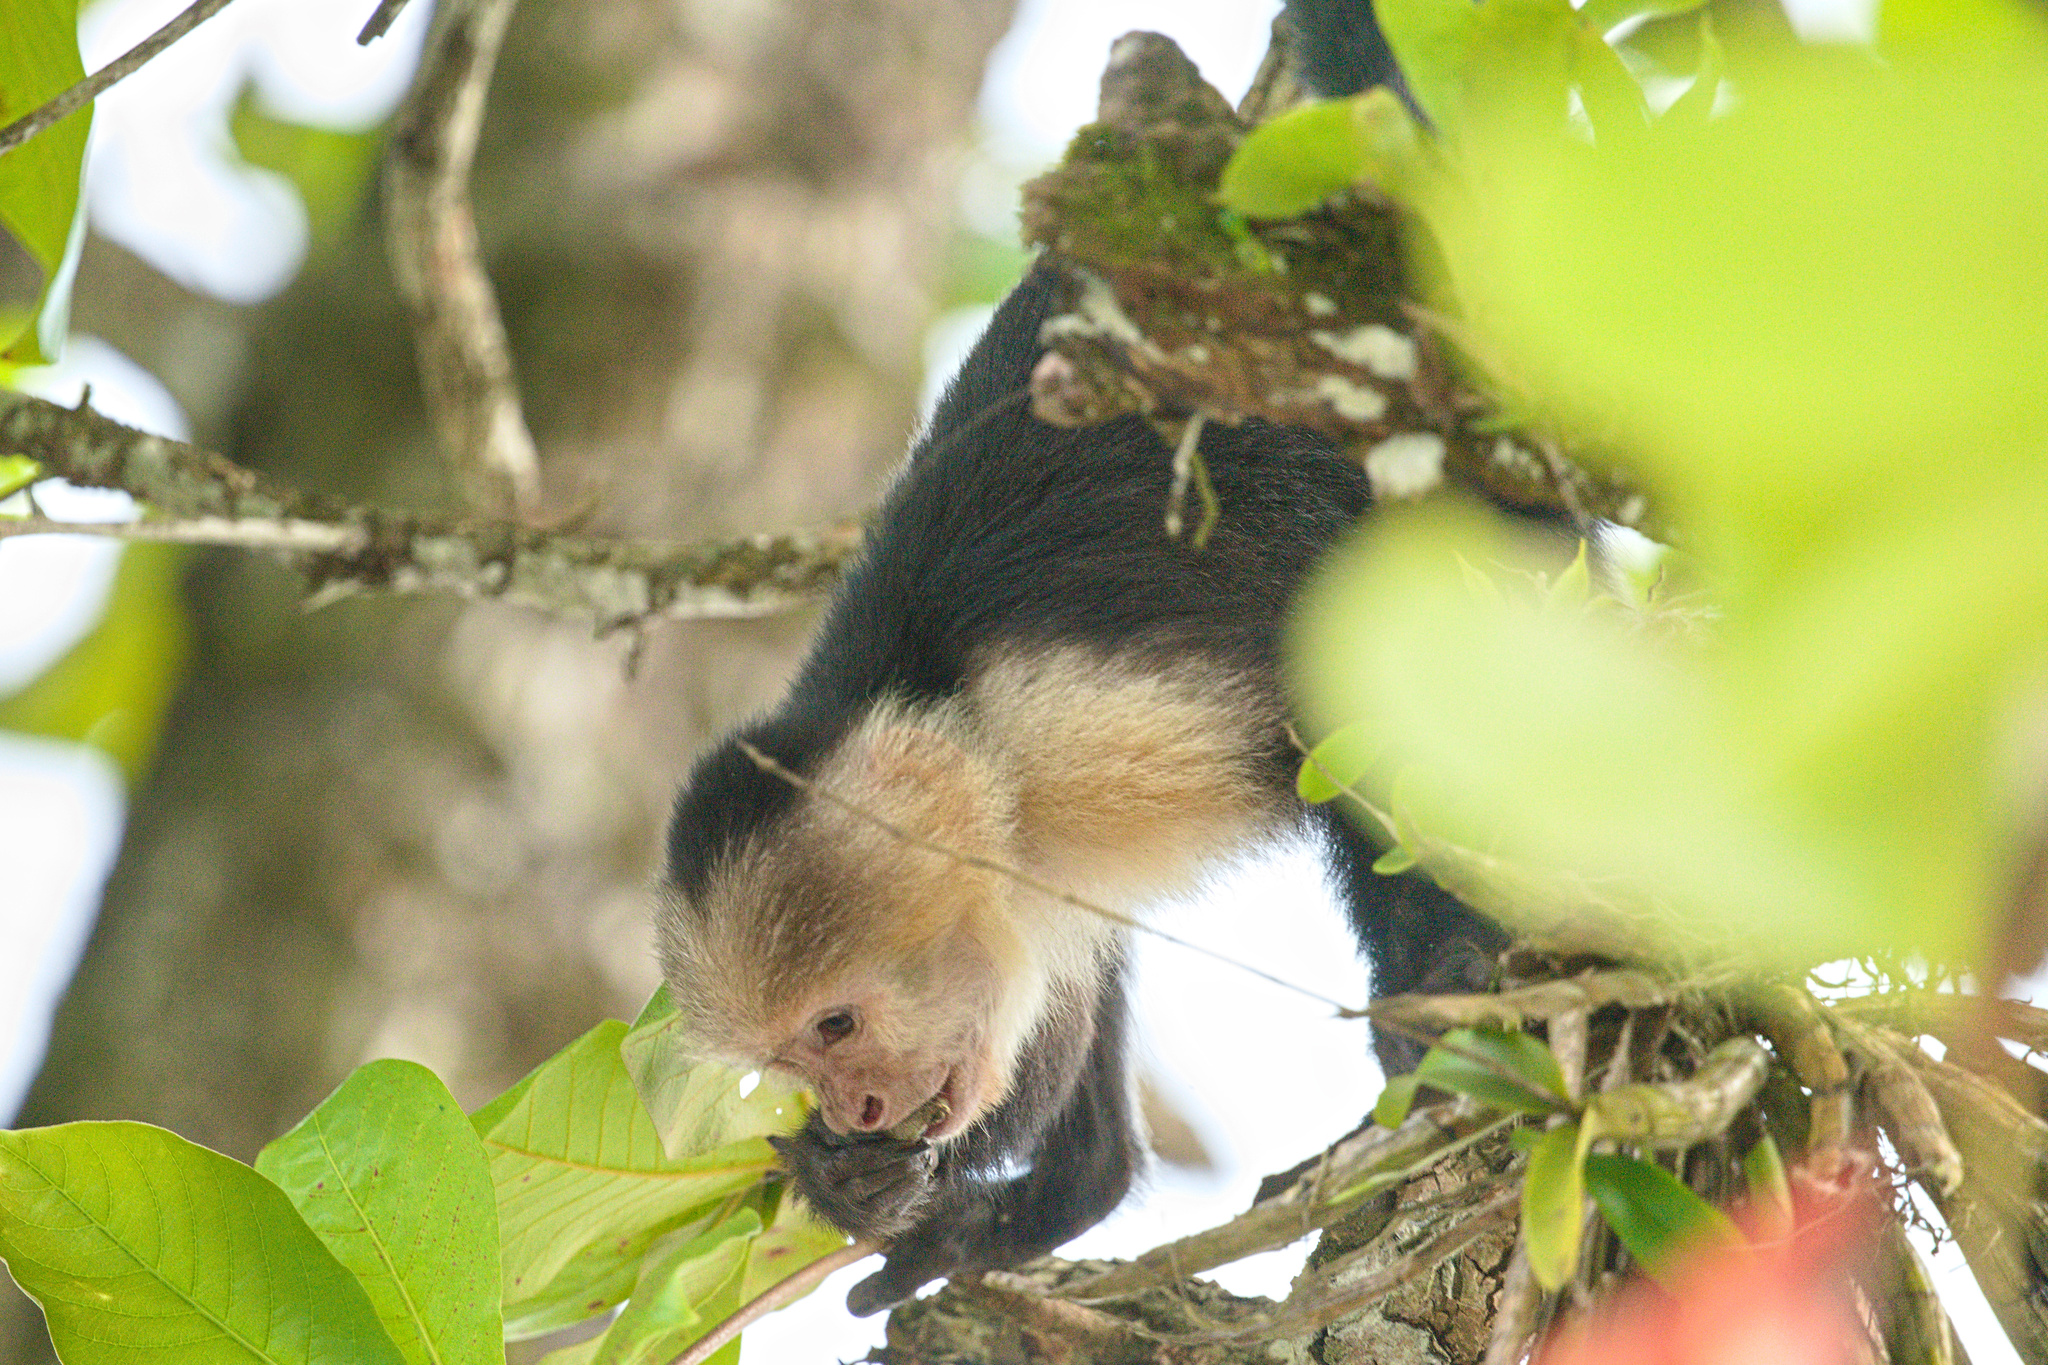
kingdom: Animalia
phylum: Chordata
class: Mammalia
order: Primates
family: Cebidae
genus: Cebus
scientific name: Cebus imitator
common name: Panamanian white-faced capuchin
